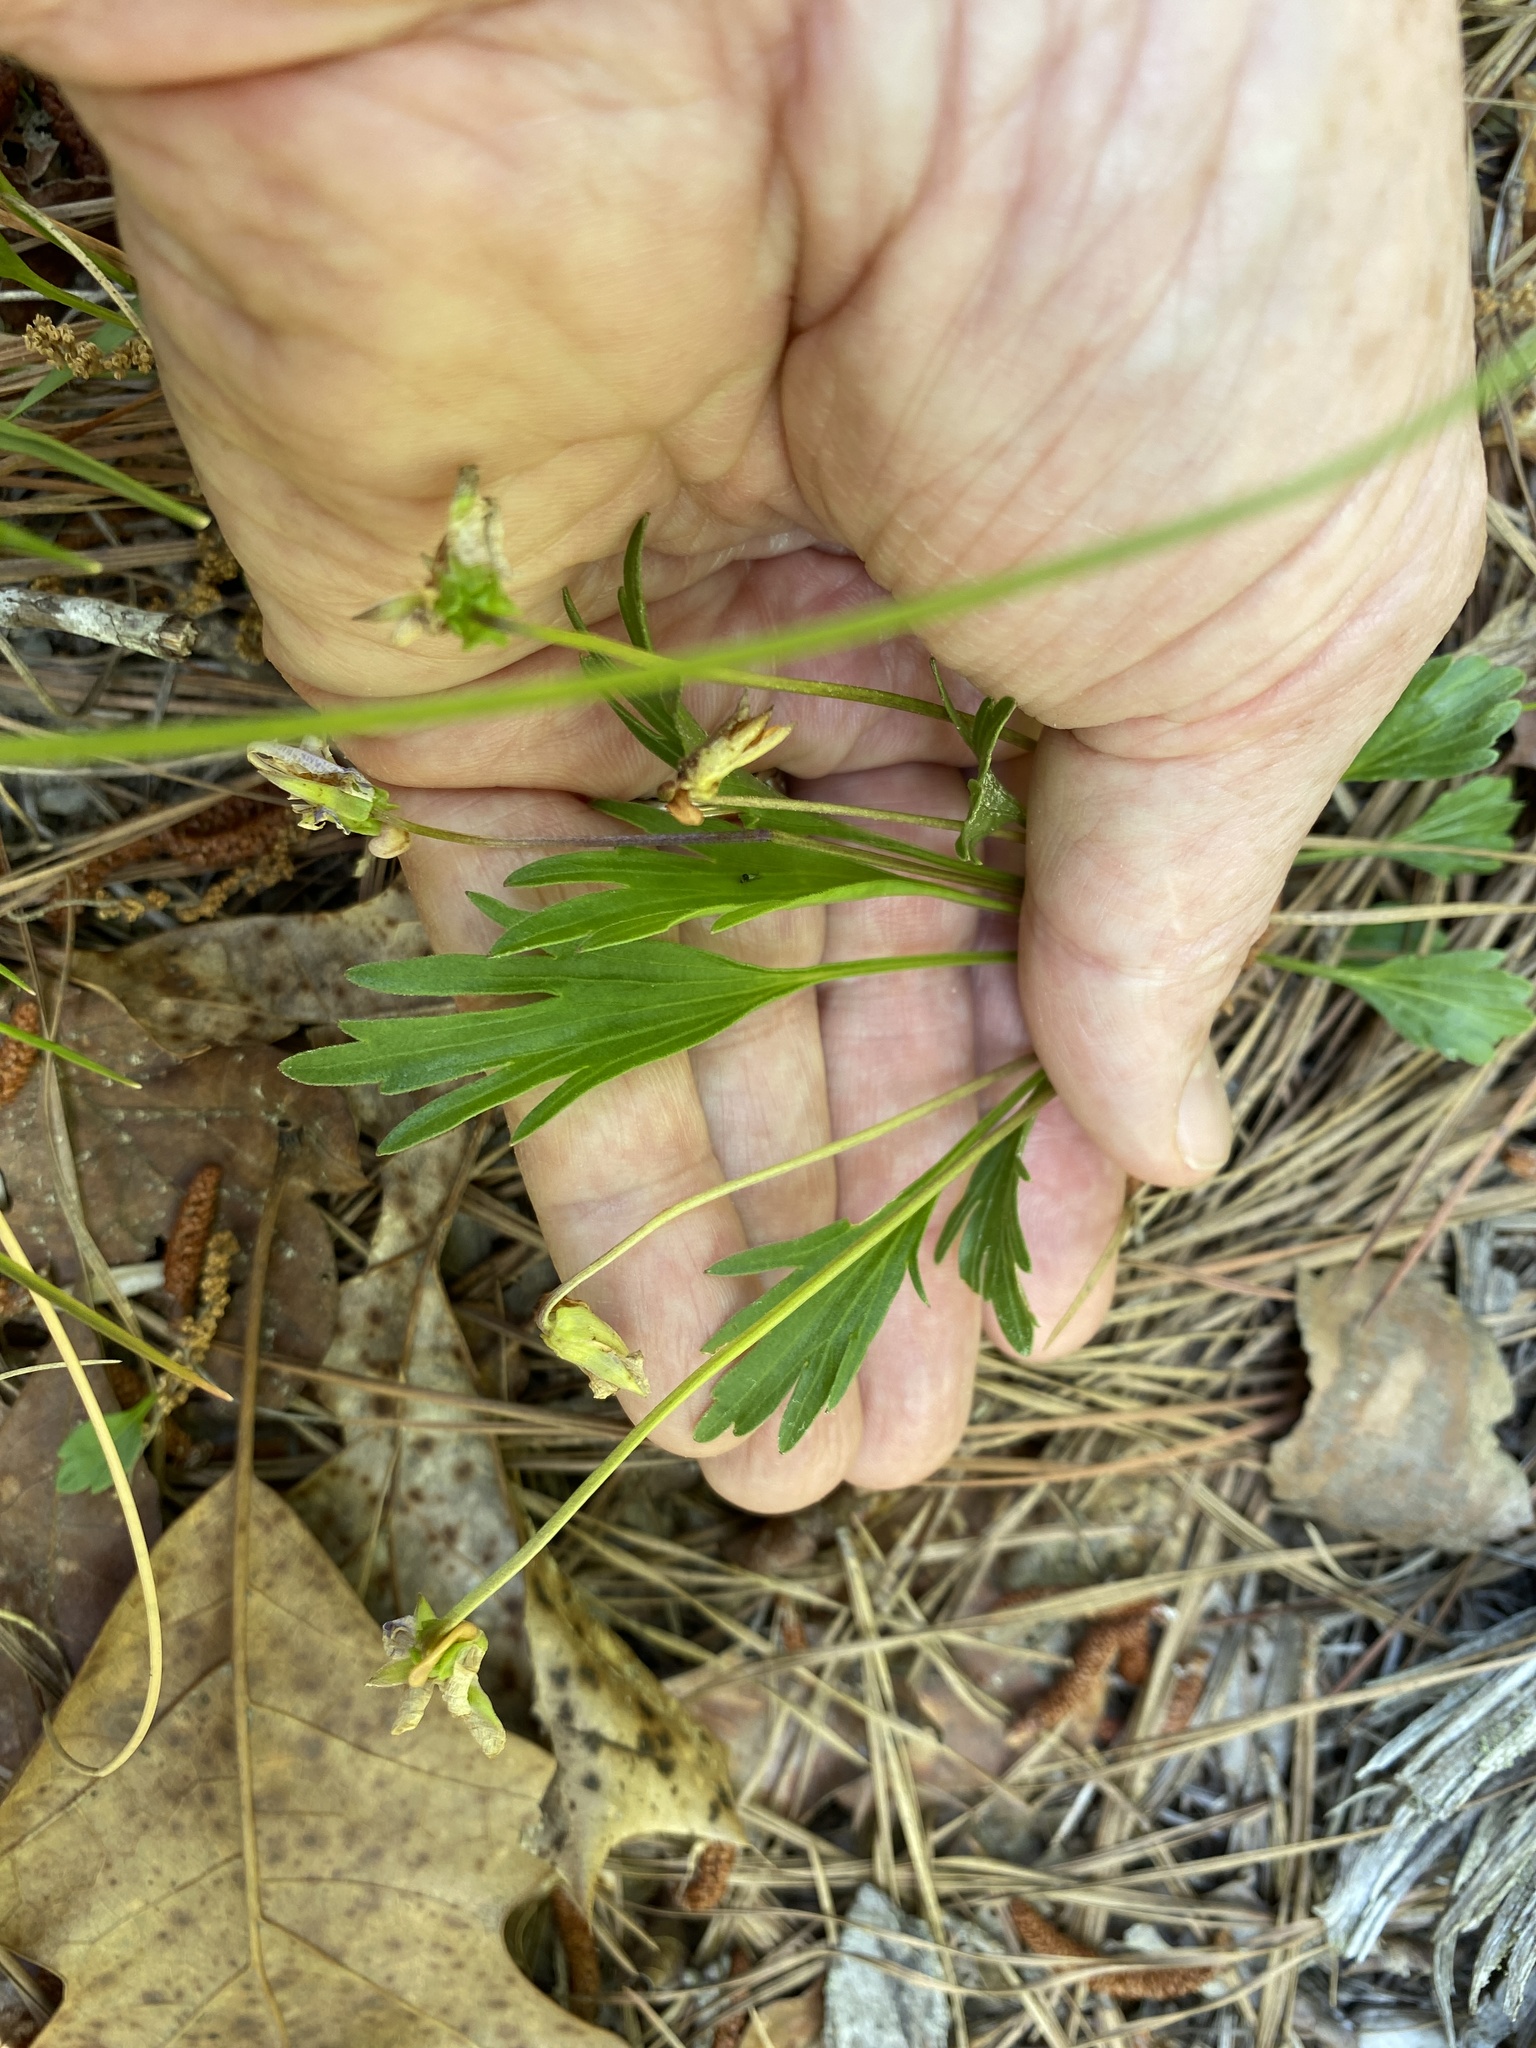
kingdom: Plantae
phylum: Tracheophyta
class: Magnoliopsida
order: Malpighiales
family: Violaceae
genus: Viola
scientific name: Viola pedata
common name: Pansy violet
